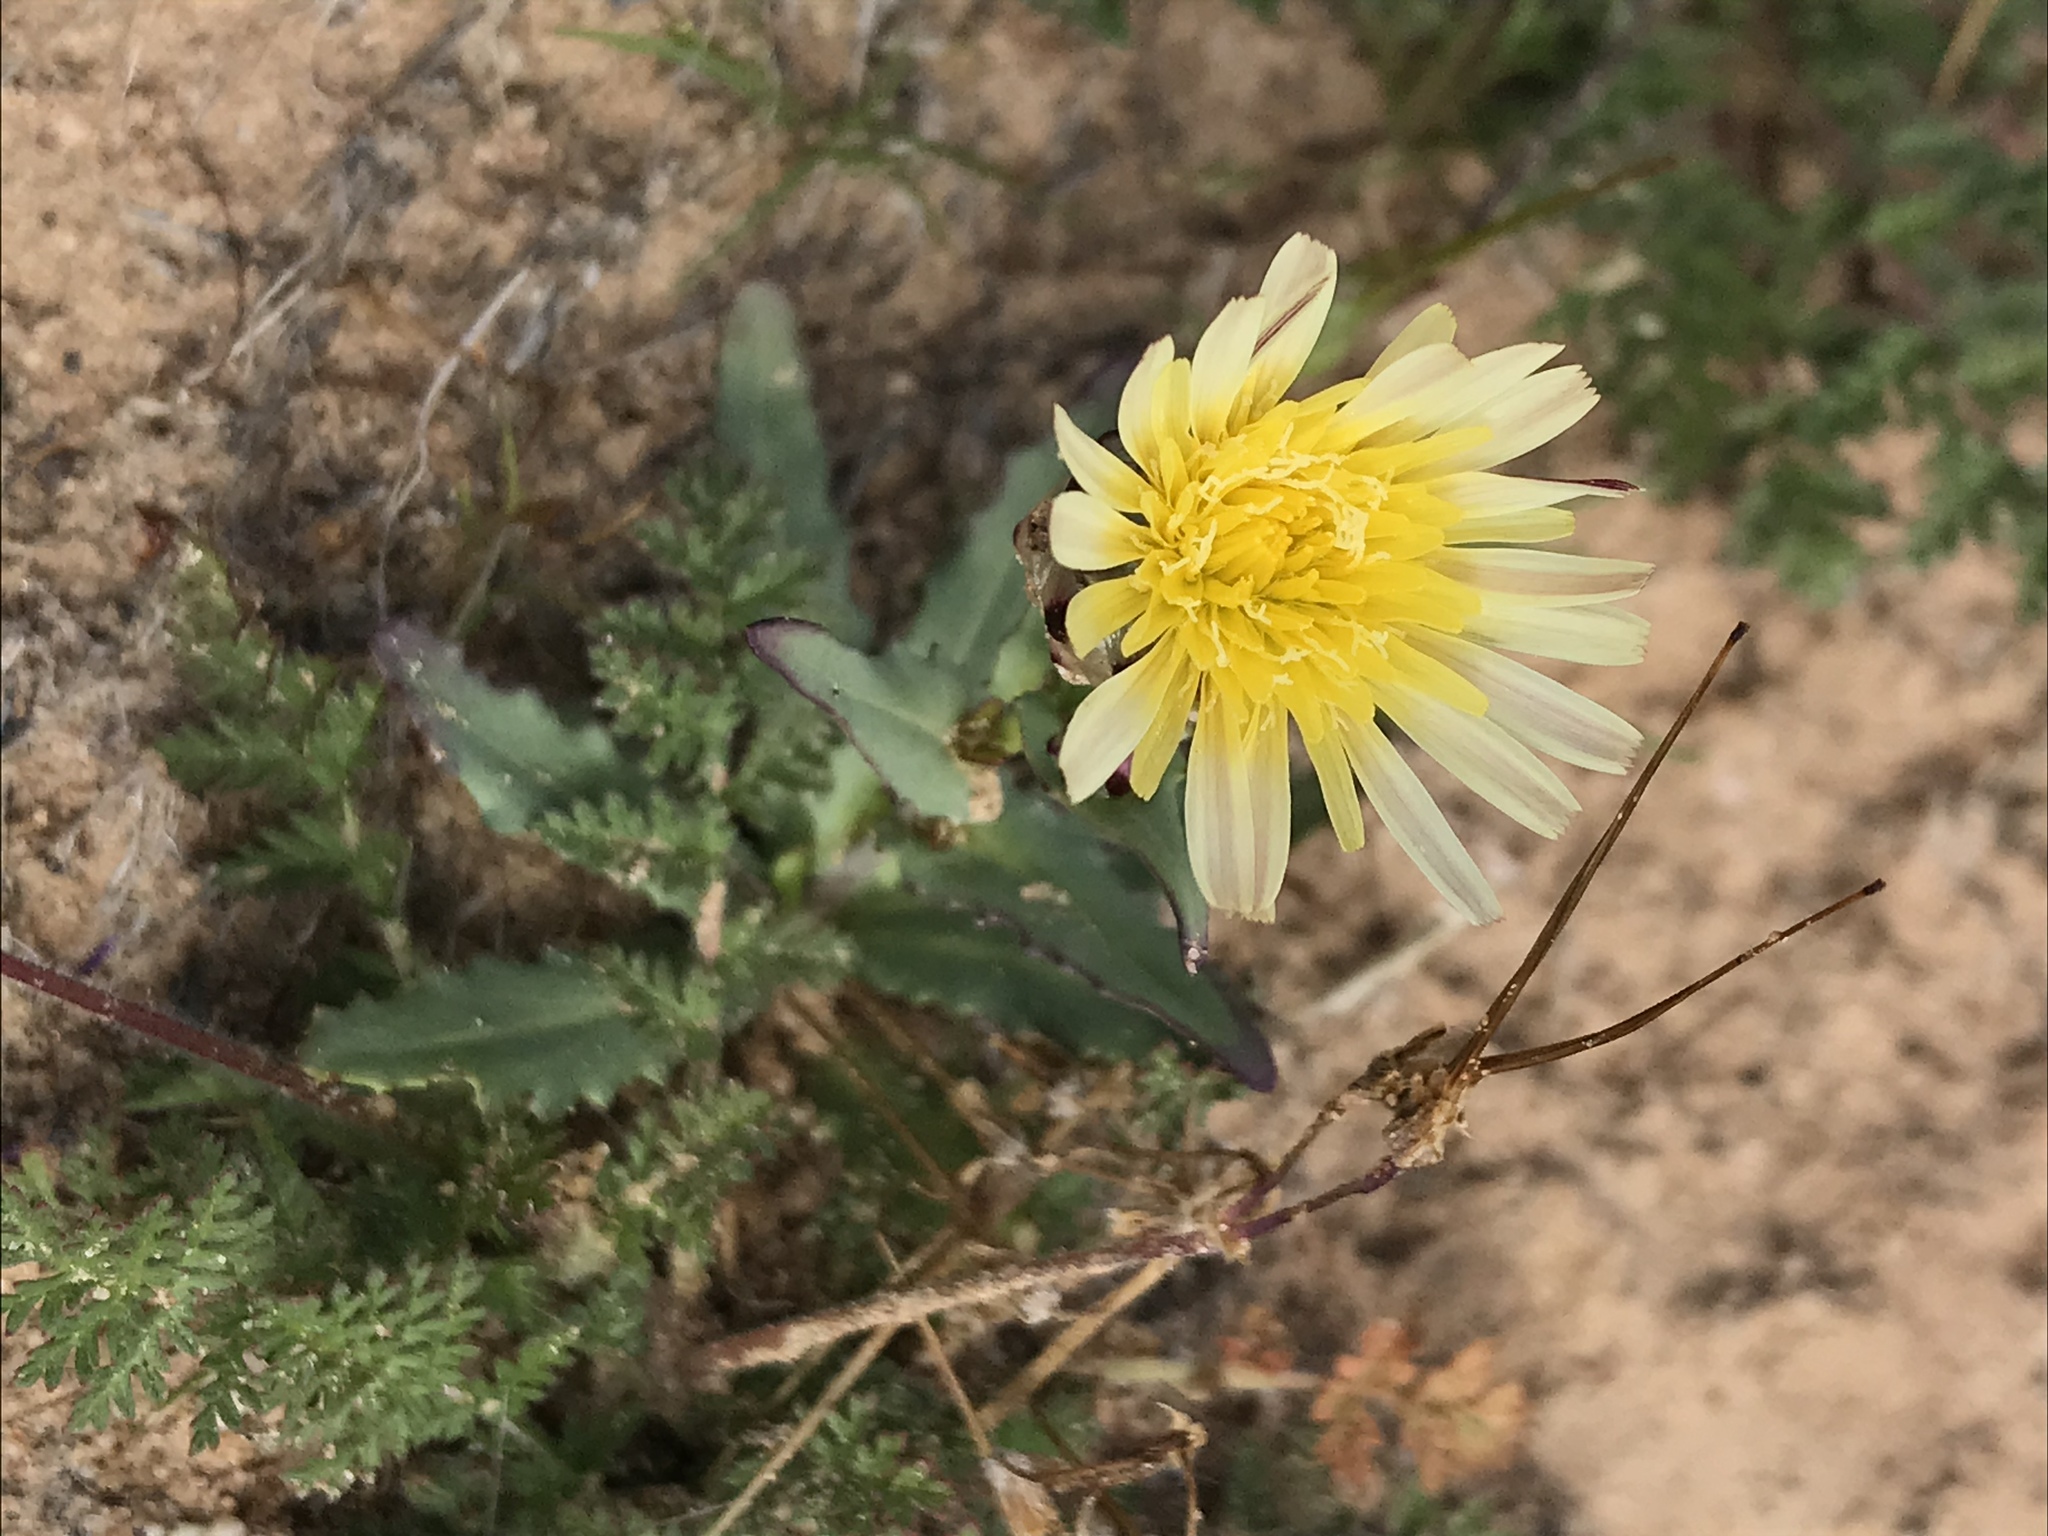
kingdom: Plantae
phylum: Tracheophyta
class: Magnoliopsida
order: Asterales
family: Asteraceae
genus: Malacothrix
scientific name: Malacothrix coulteri
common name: Snake's-head
